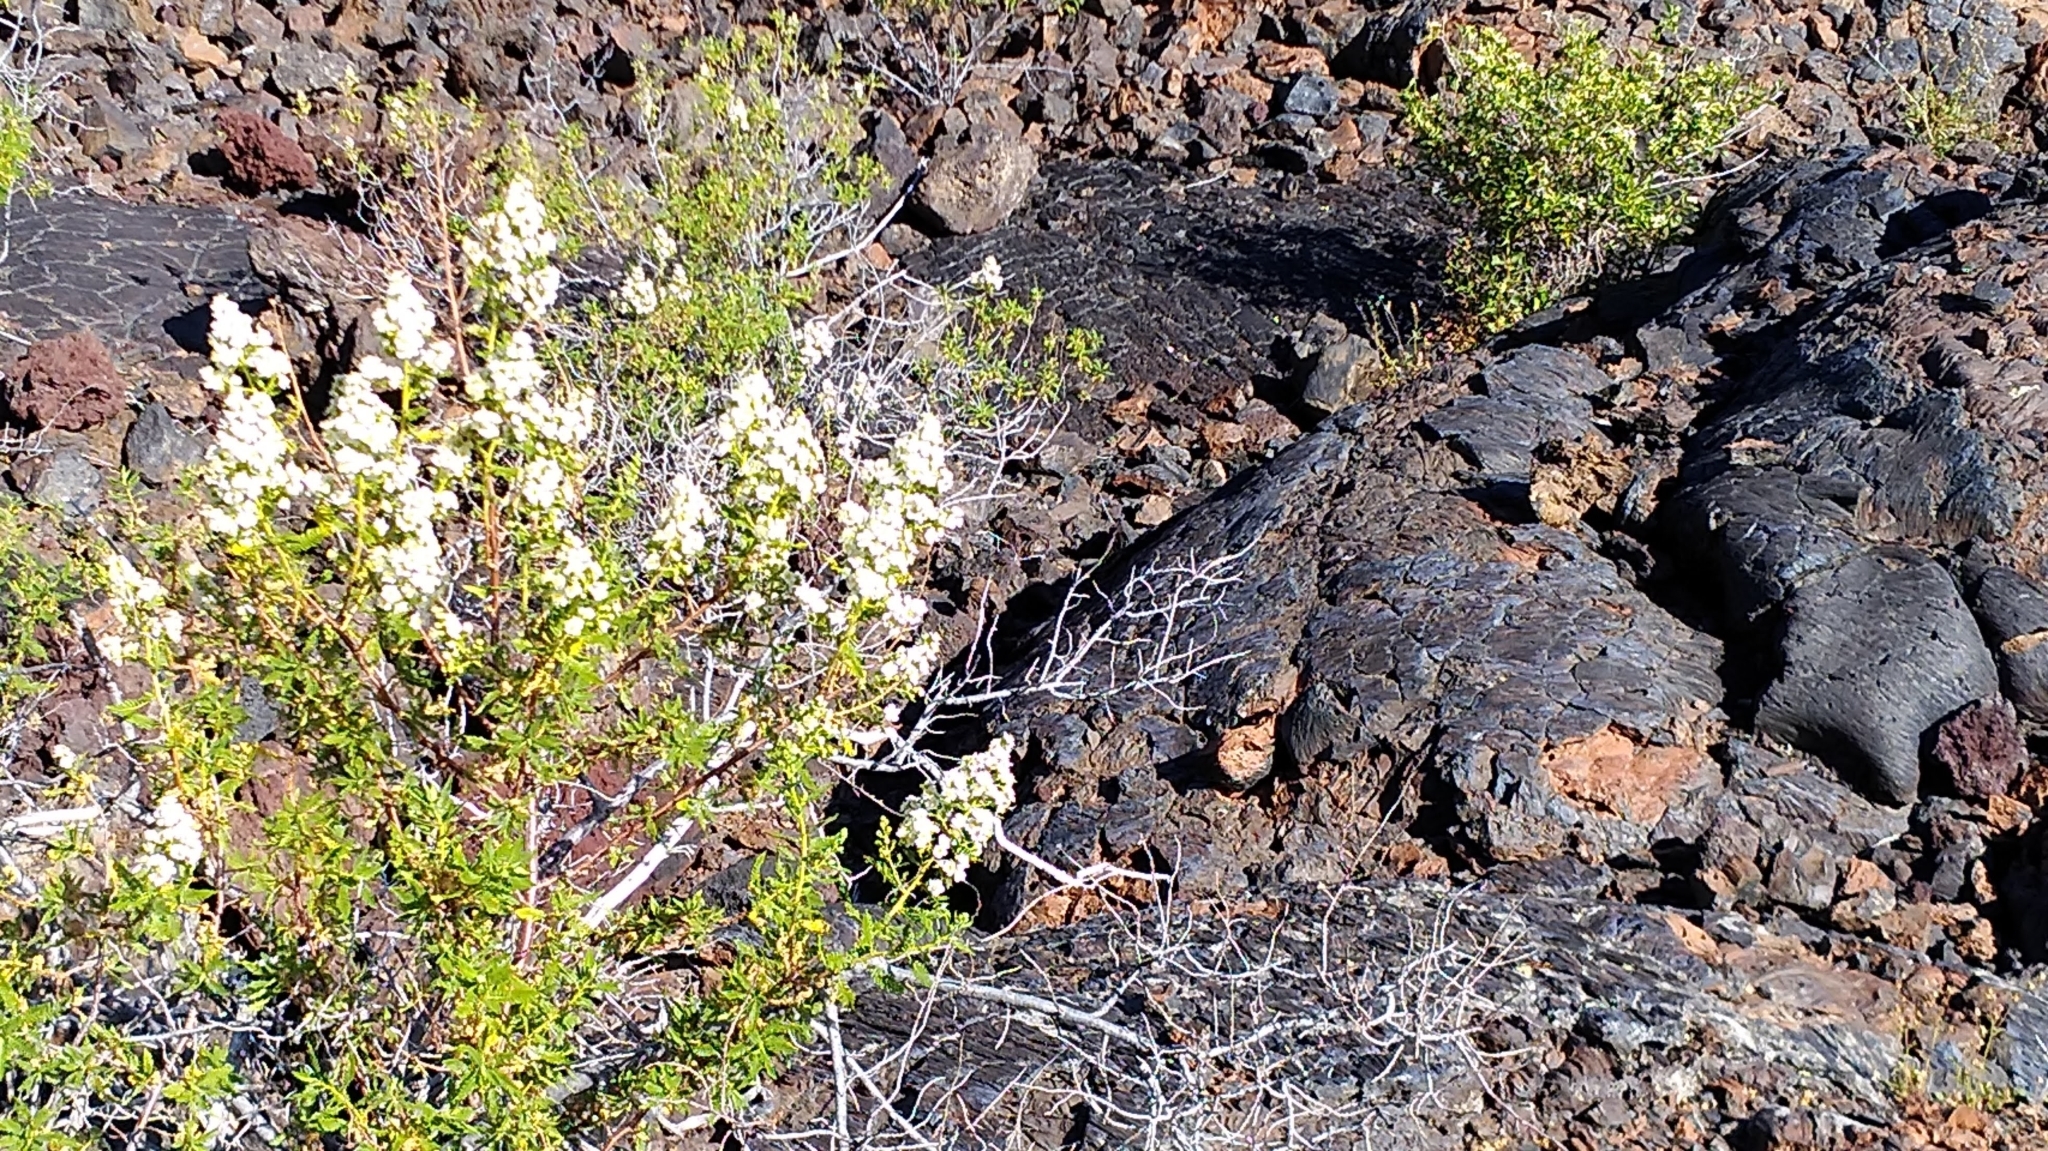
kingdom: Plantae
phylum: Tracheophyta
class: Magnoliopsida
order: Rosales
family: Rosaceae
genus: Chamaebatiaria
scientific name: Chamaebatiaria millefolium
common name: Fernbush
